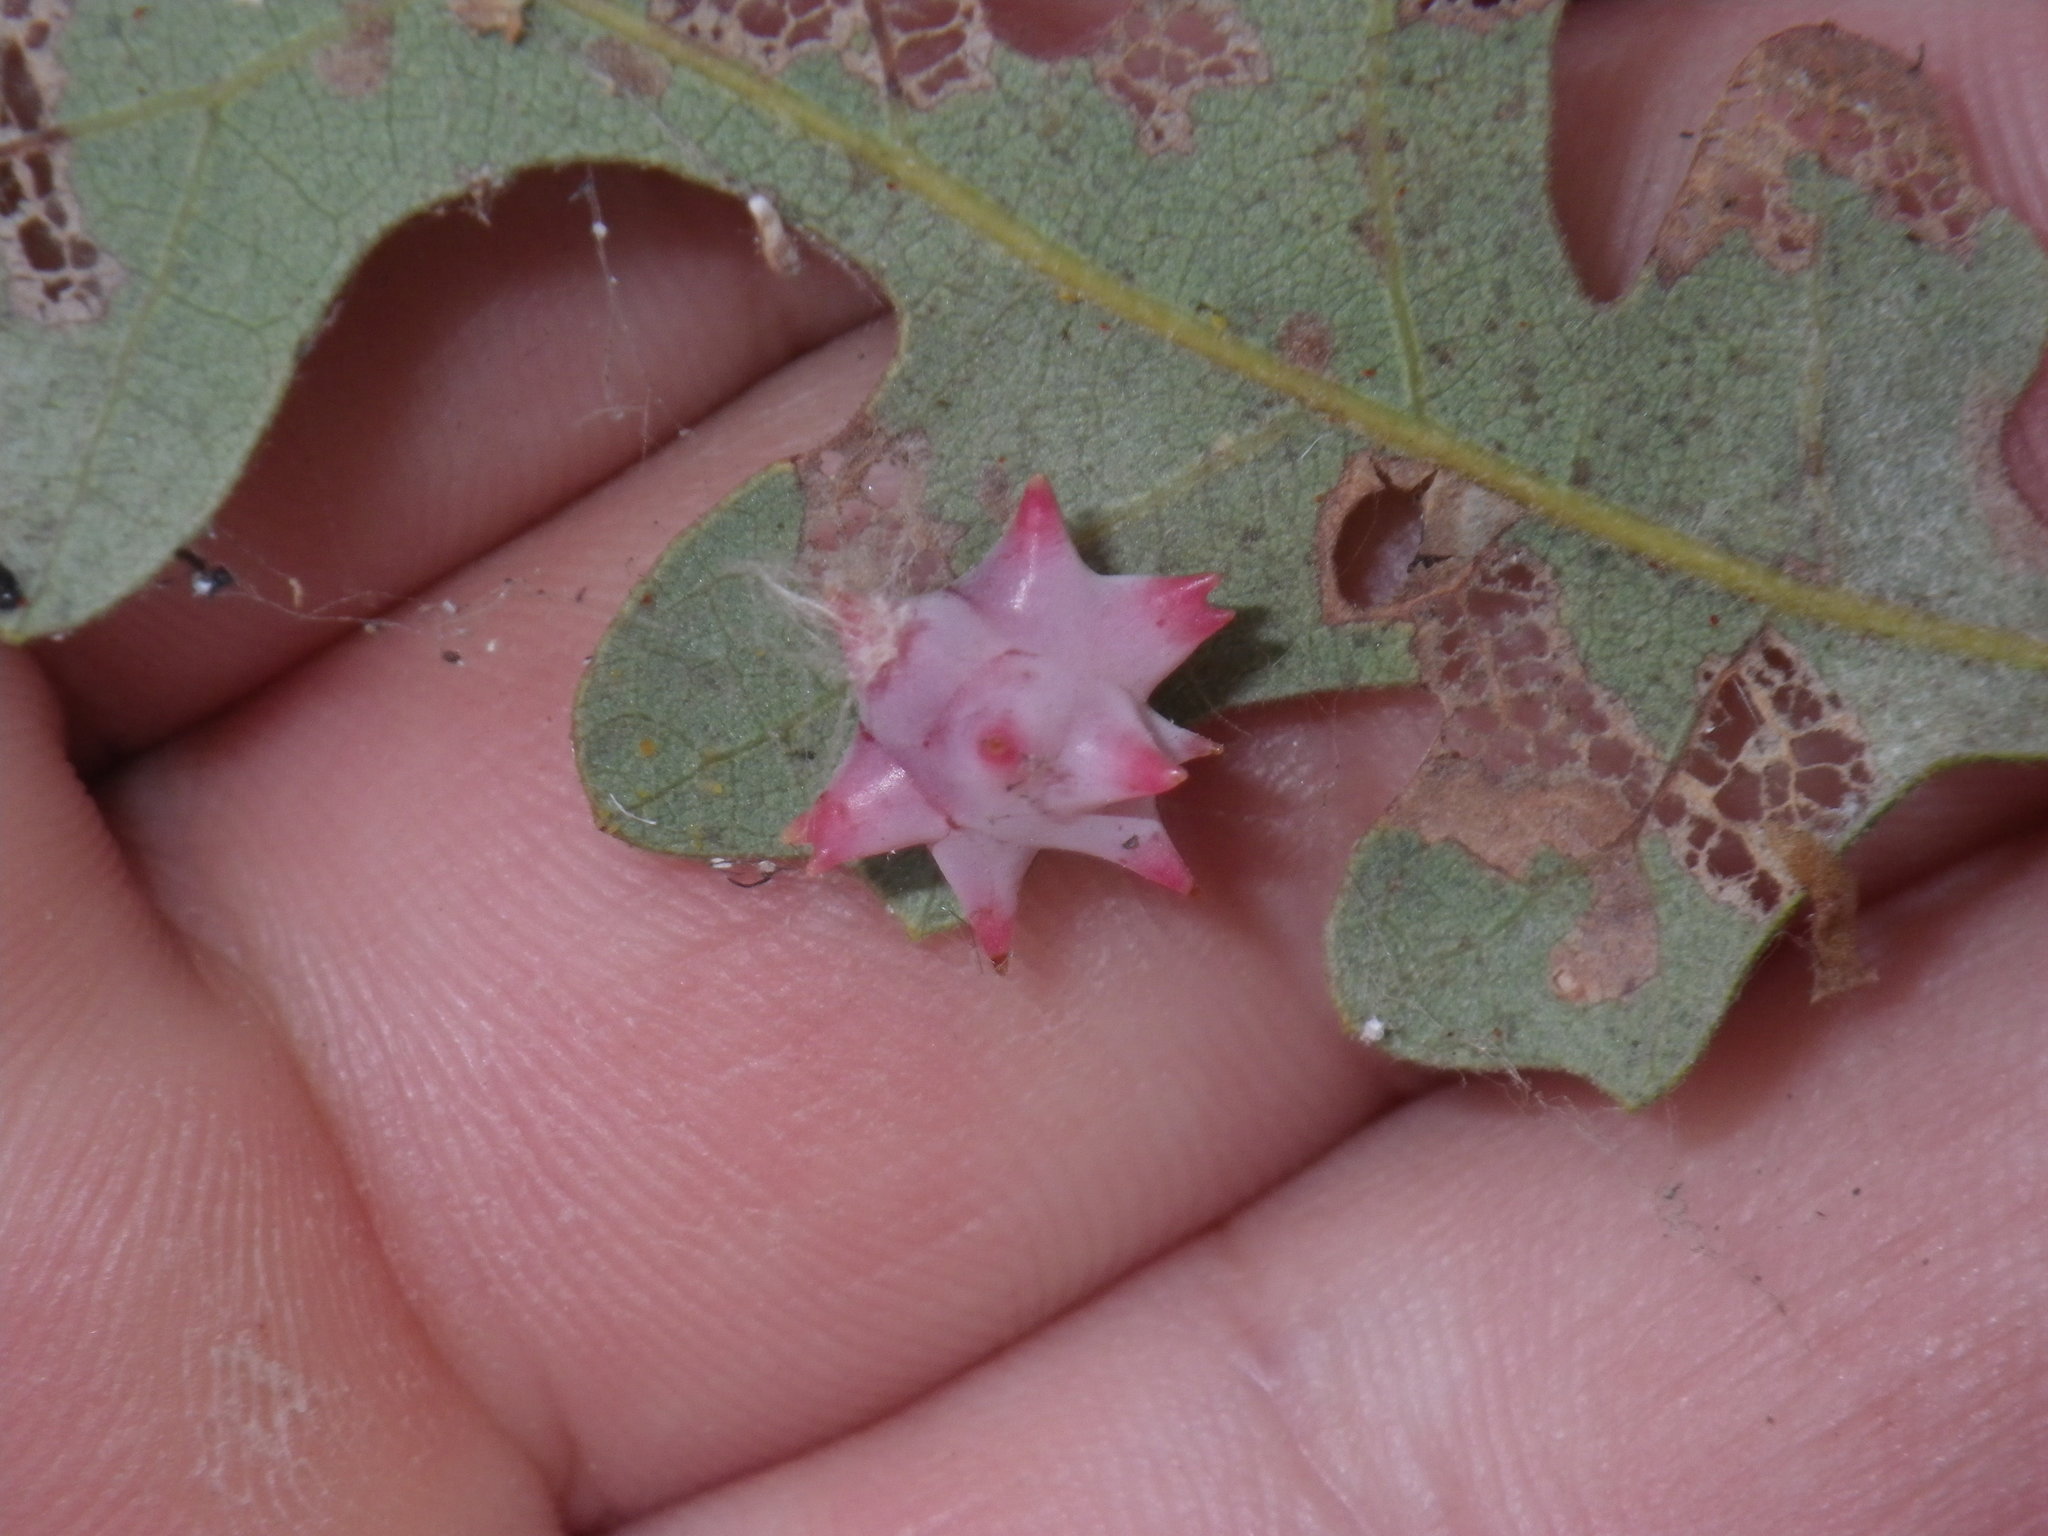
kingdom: Animalia
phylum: Arthropoda
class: Insecta
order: Hymenoptera
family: Cynipidae
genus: Cynips
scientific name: Cynips douglasi
